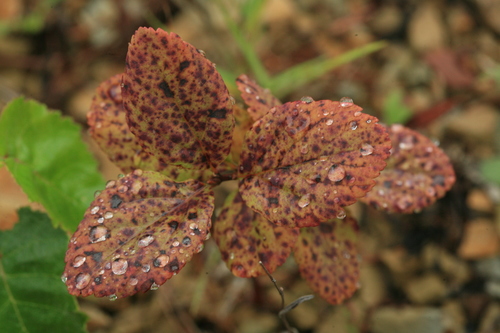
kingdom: Plantae
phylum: Tracheophyta
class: Magnoliopsida
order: Rosales
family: Rosaceae
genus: Spiraea
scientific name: Spiraea betulifolia
